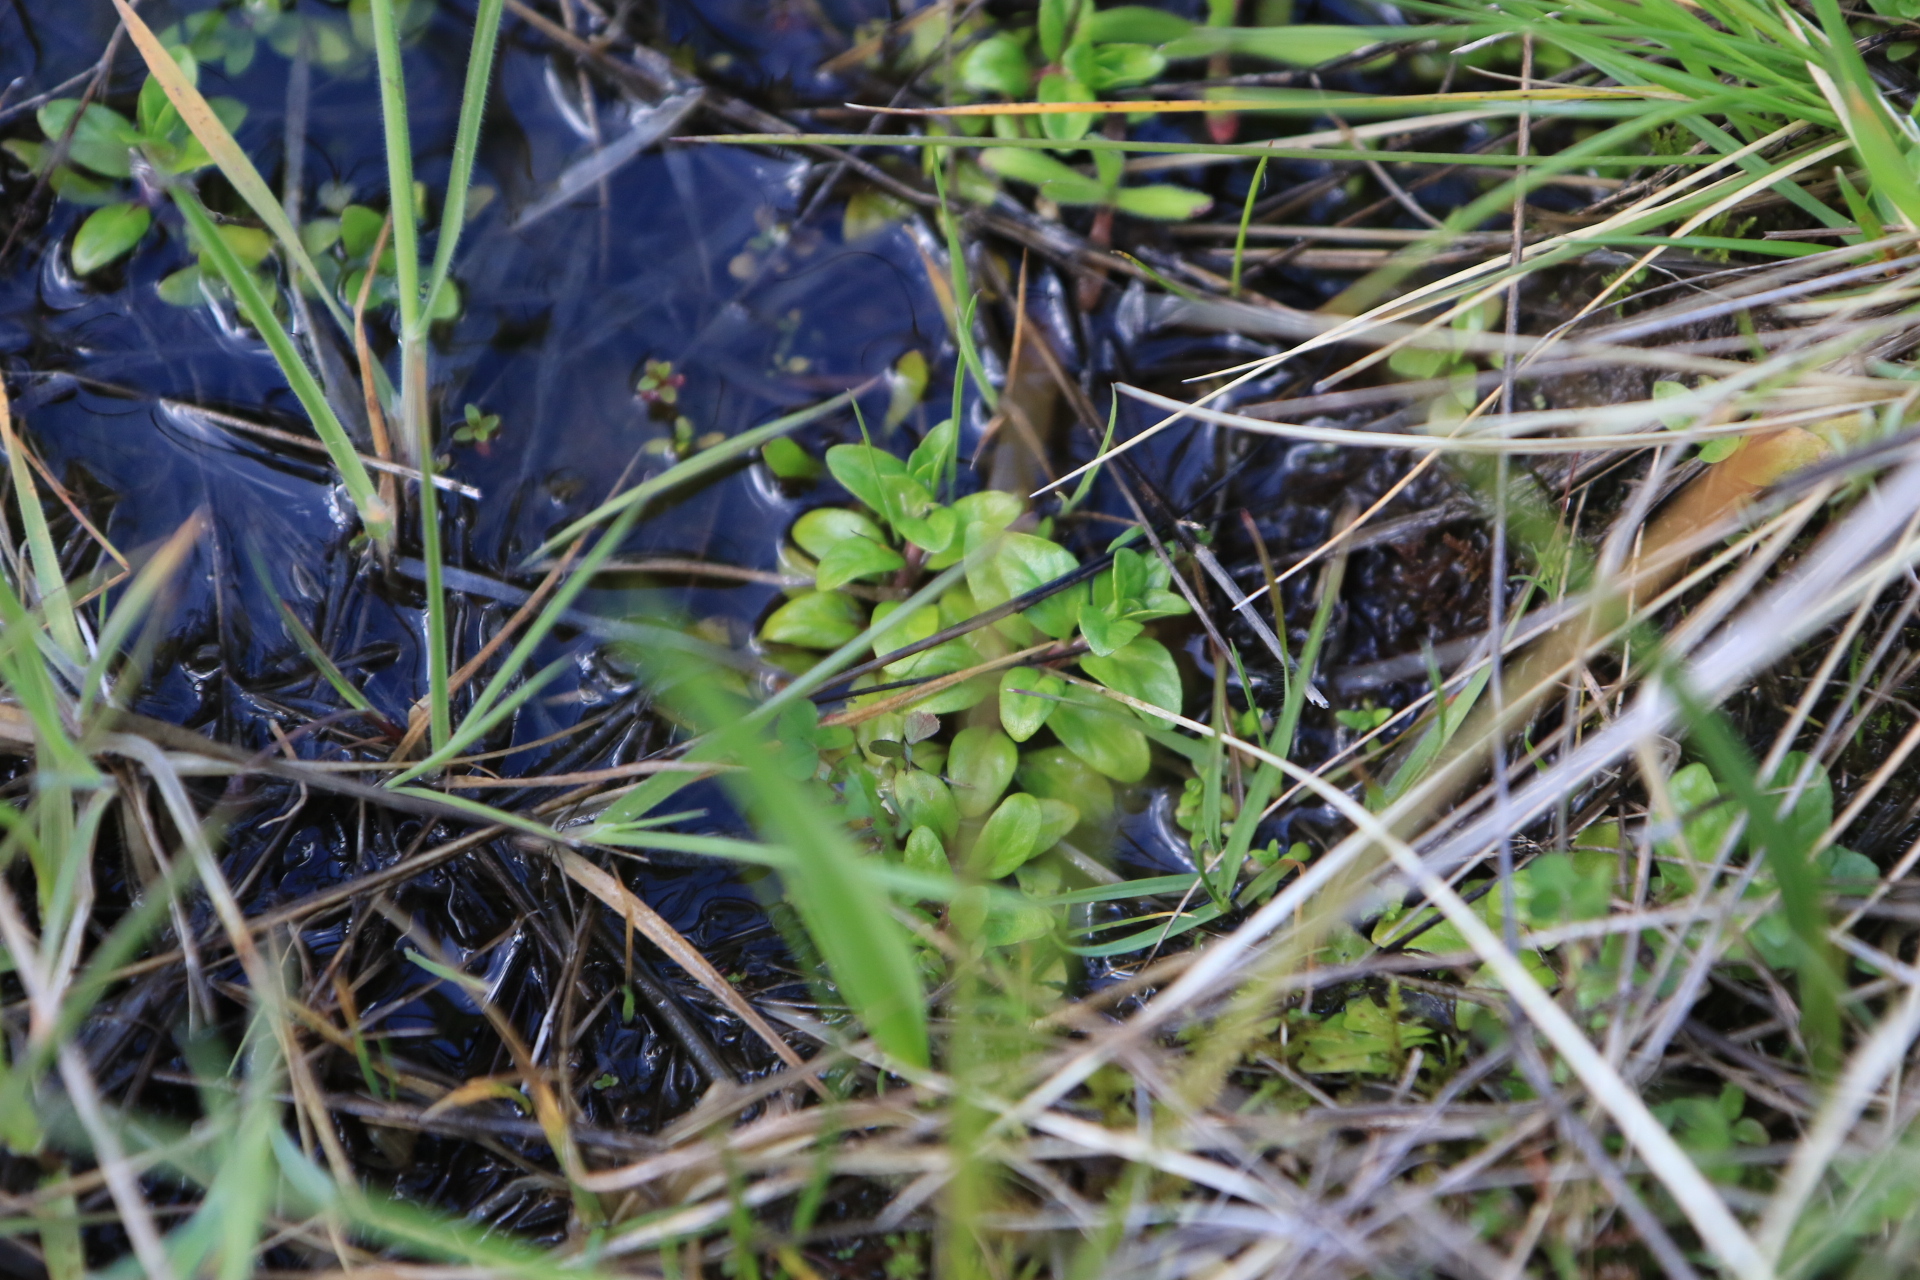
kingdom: Plantae
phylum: Tracheophyta
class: Magnoliopsida
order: Lamiales
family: Lamiaceae
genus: Mentha
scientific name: Mentha pulegium
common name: Pennyroyal
